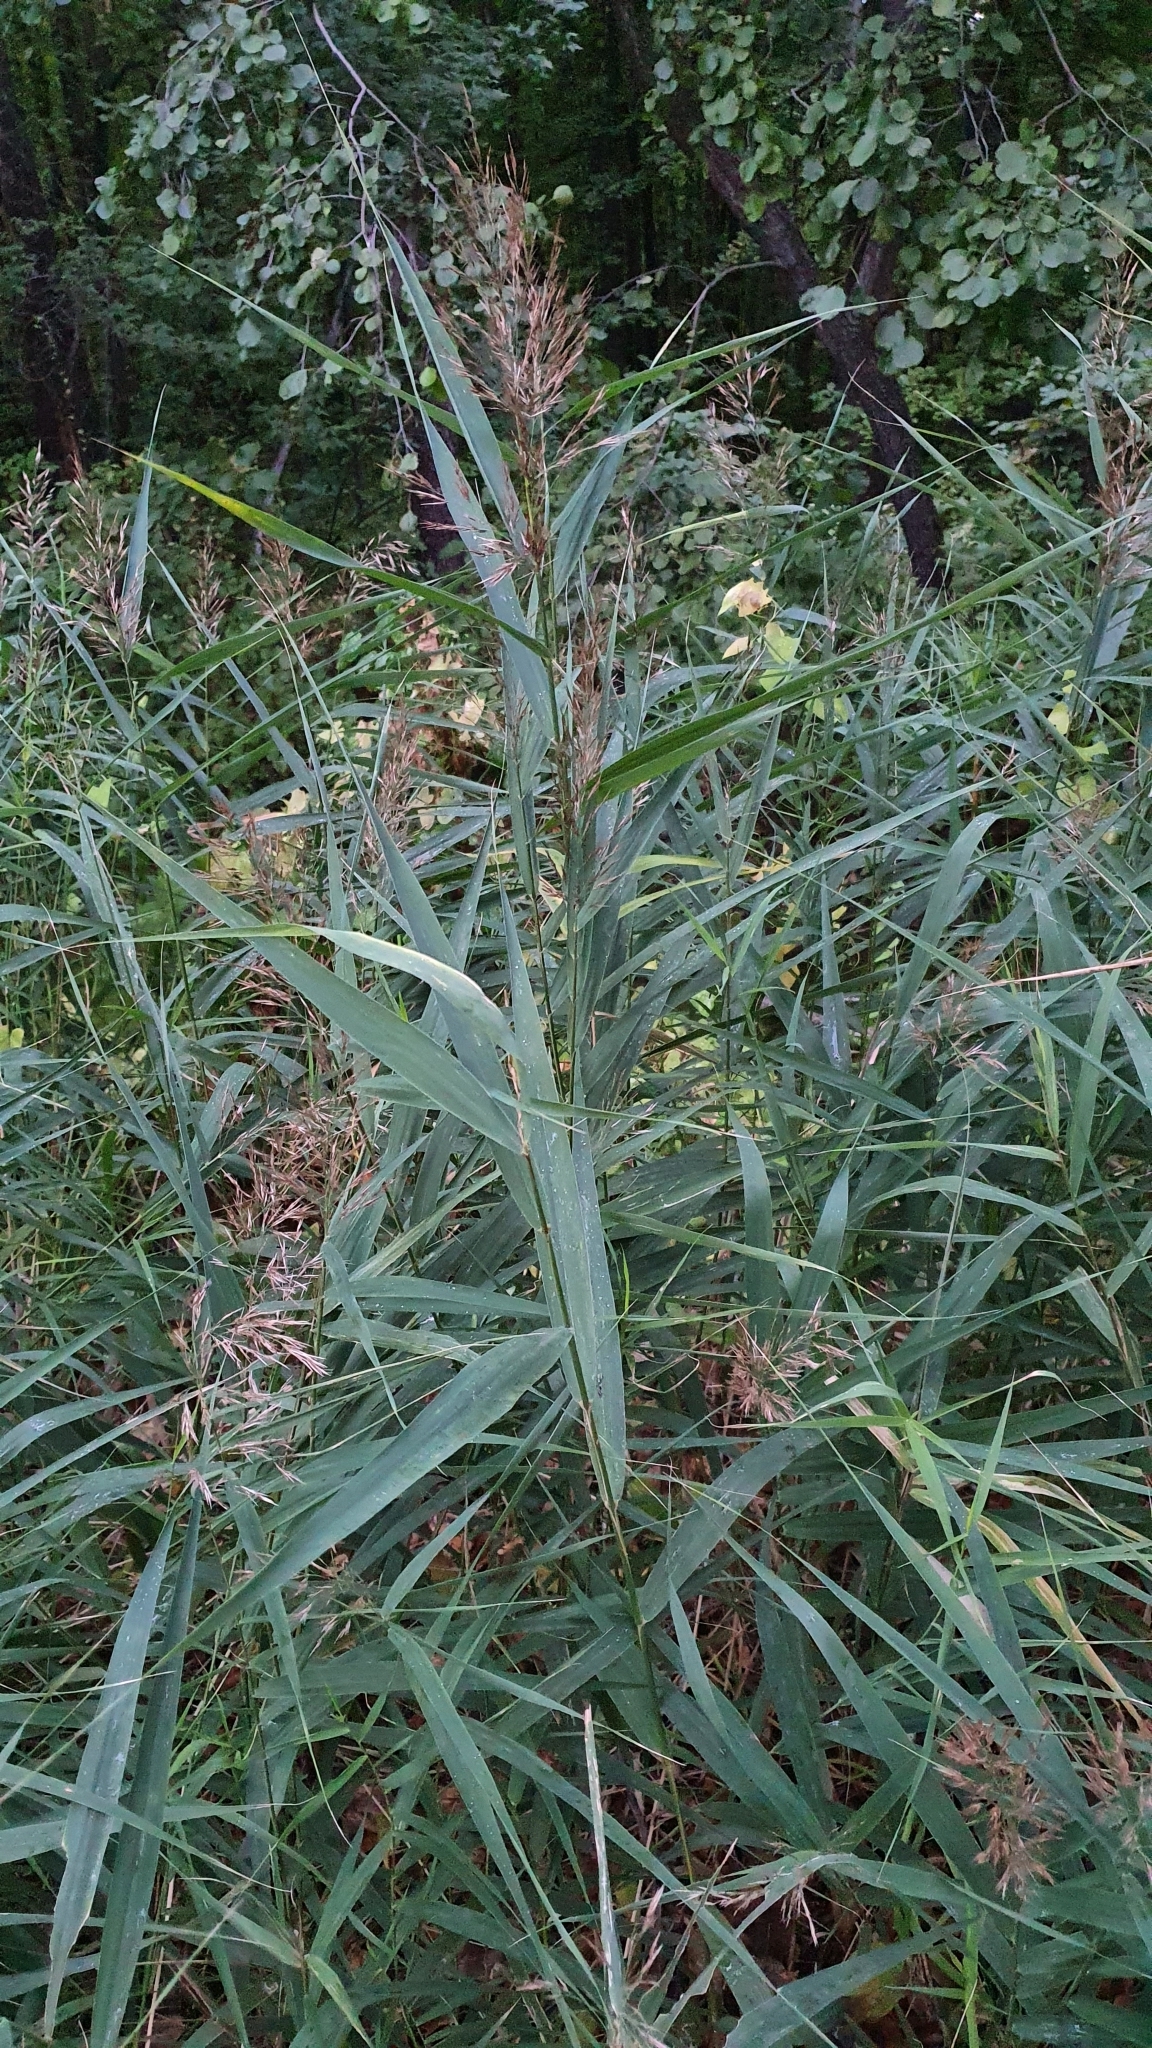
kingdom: Plantae
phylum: Tracheophyta
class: Liliopsida
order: Poales
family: Poaceae
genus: Phragmites
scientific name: Phragmites australis
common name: Common reed
